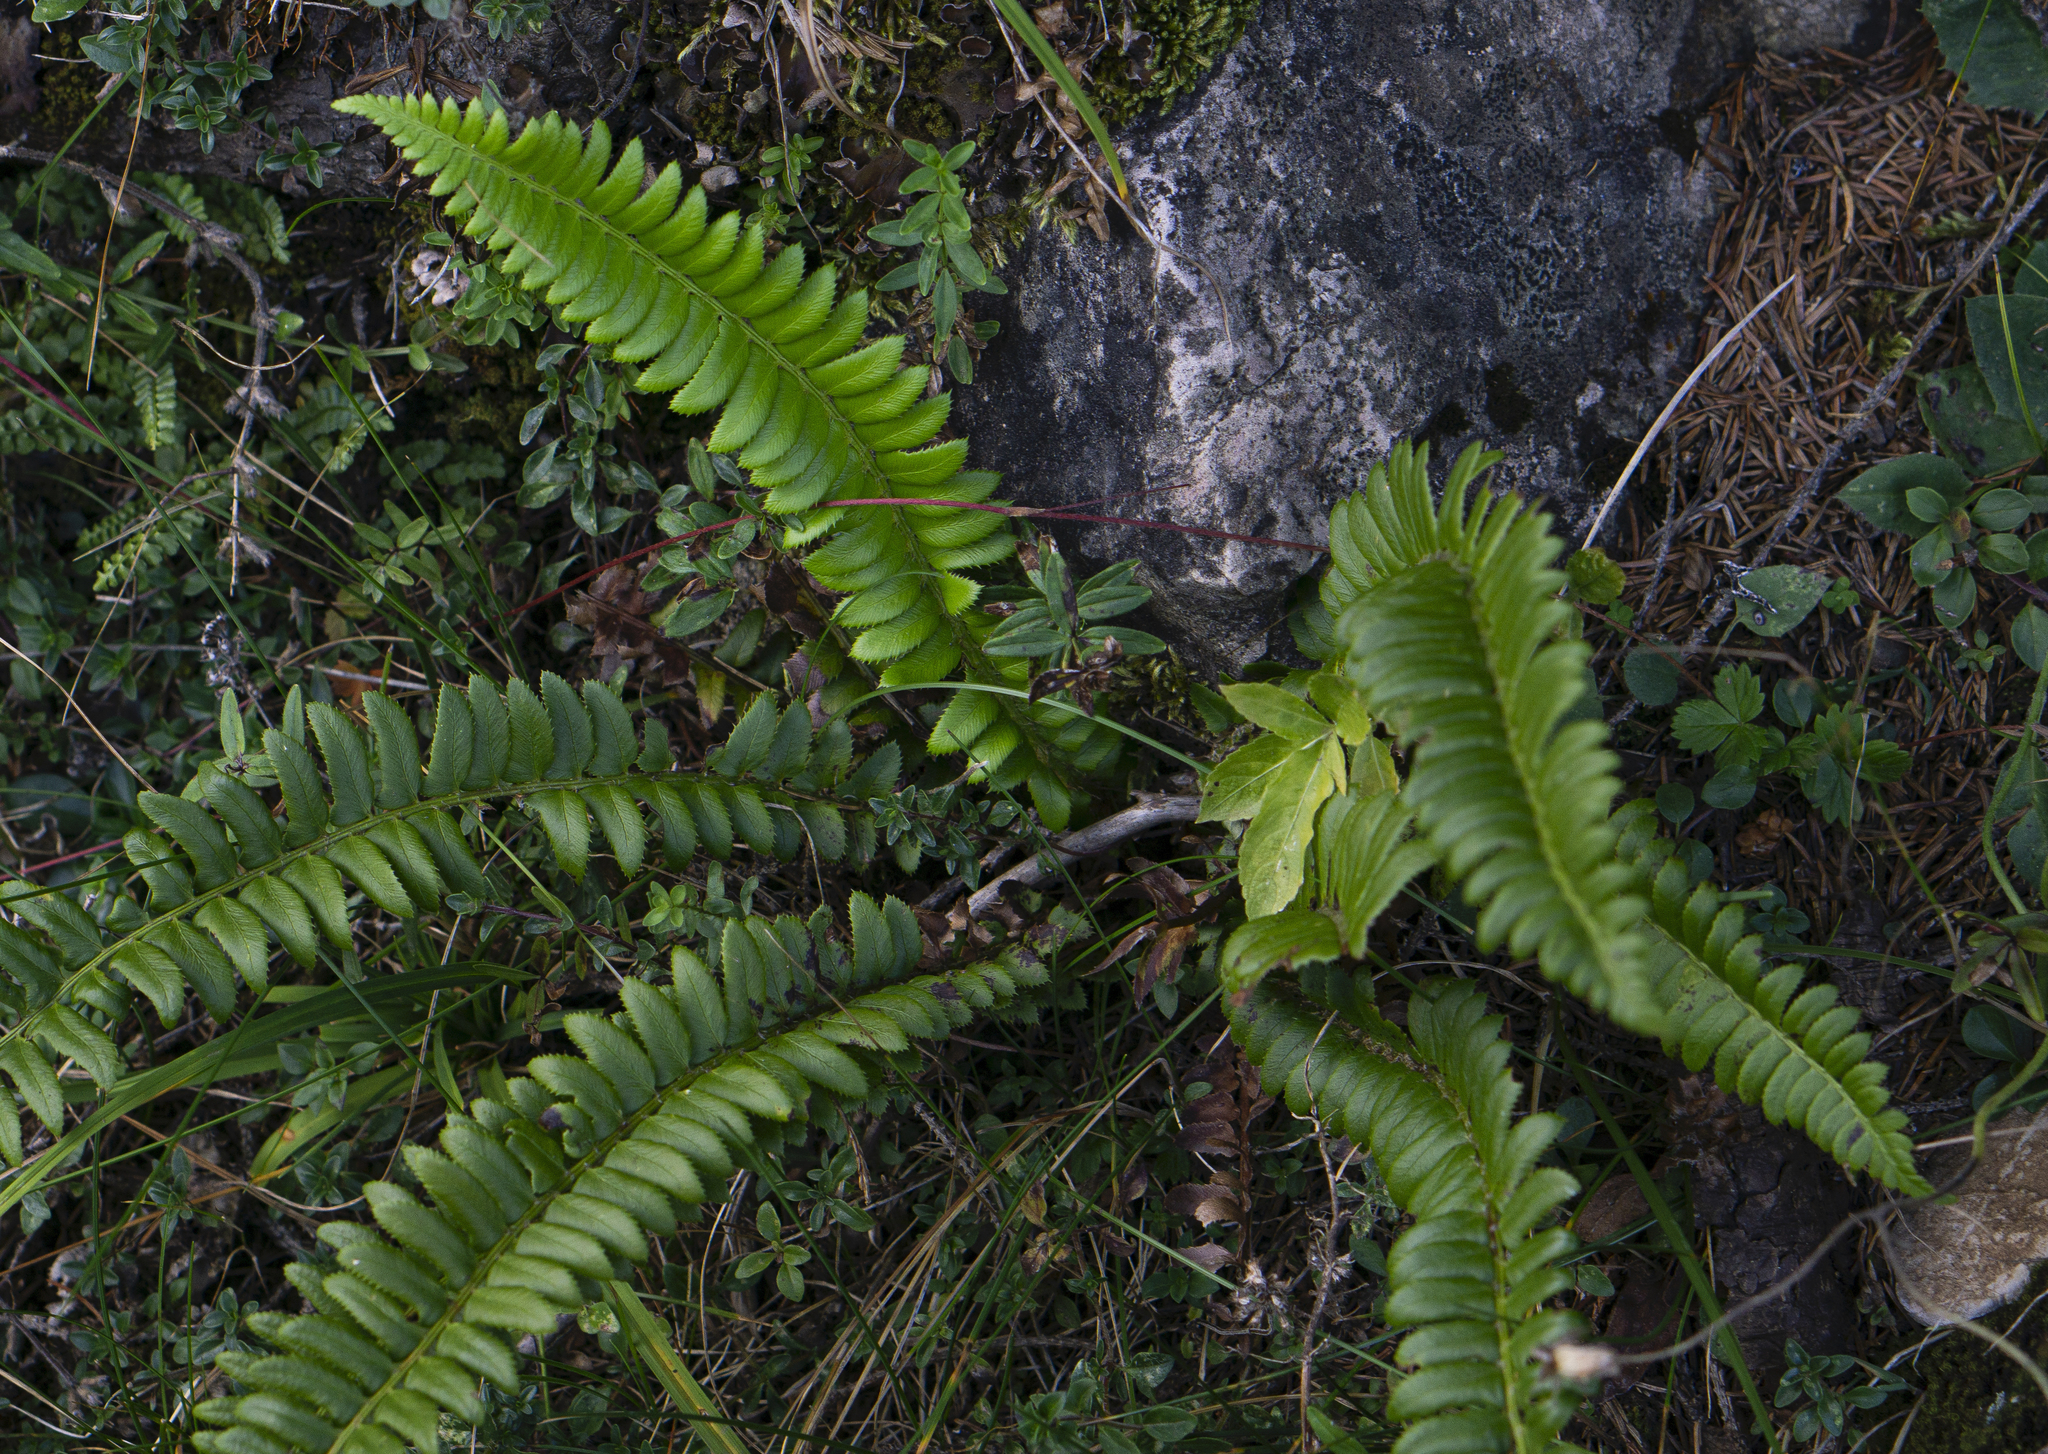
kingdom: Plantae
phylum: Tracheophyta
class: Polypodiopsida
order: Polypodiales
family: Dryopteridaceae
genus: Polystichum
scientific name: Polystichum lonchitis
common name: Holly fern
